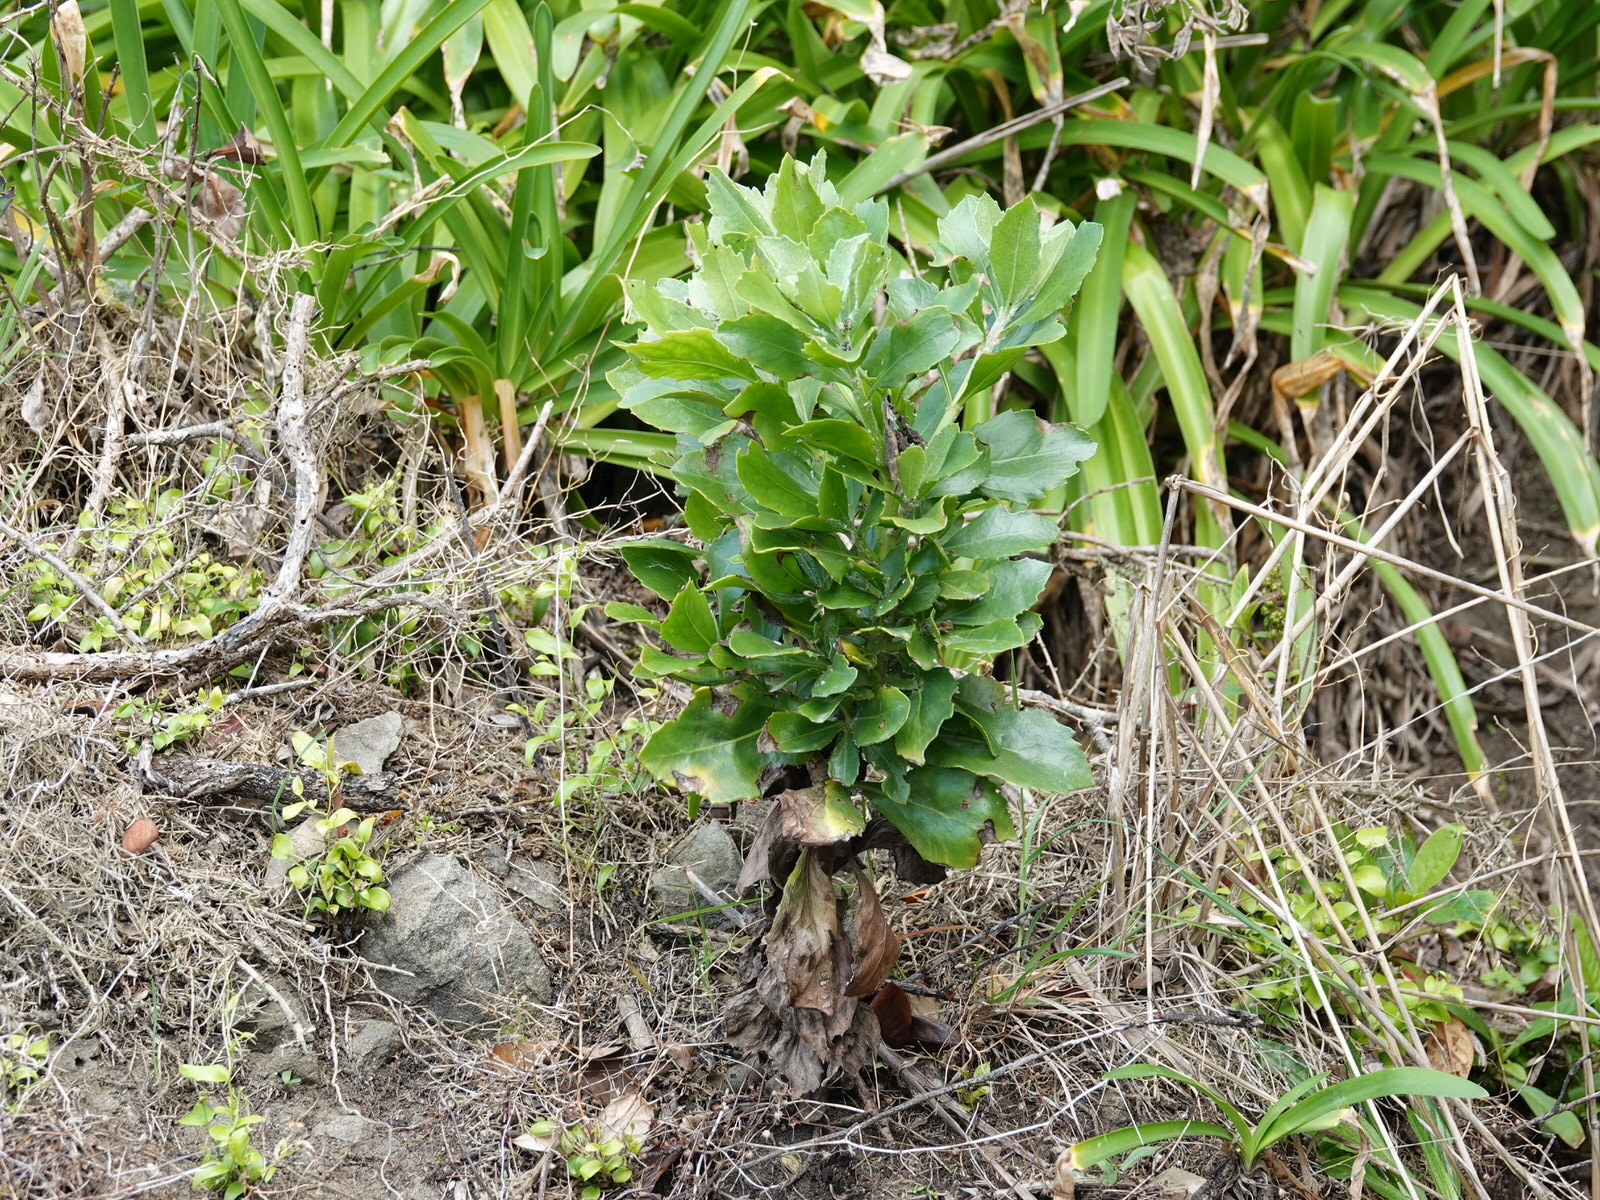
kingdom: Plantae
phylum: Tracheophyta
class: Magnoliopsida
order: Asterales
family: Asteraceae
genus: Osteospermum
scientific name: Osteospermum moniliferum
